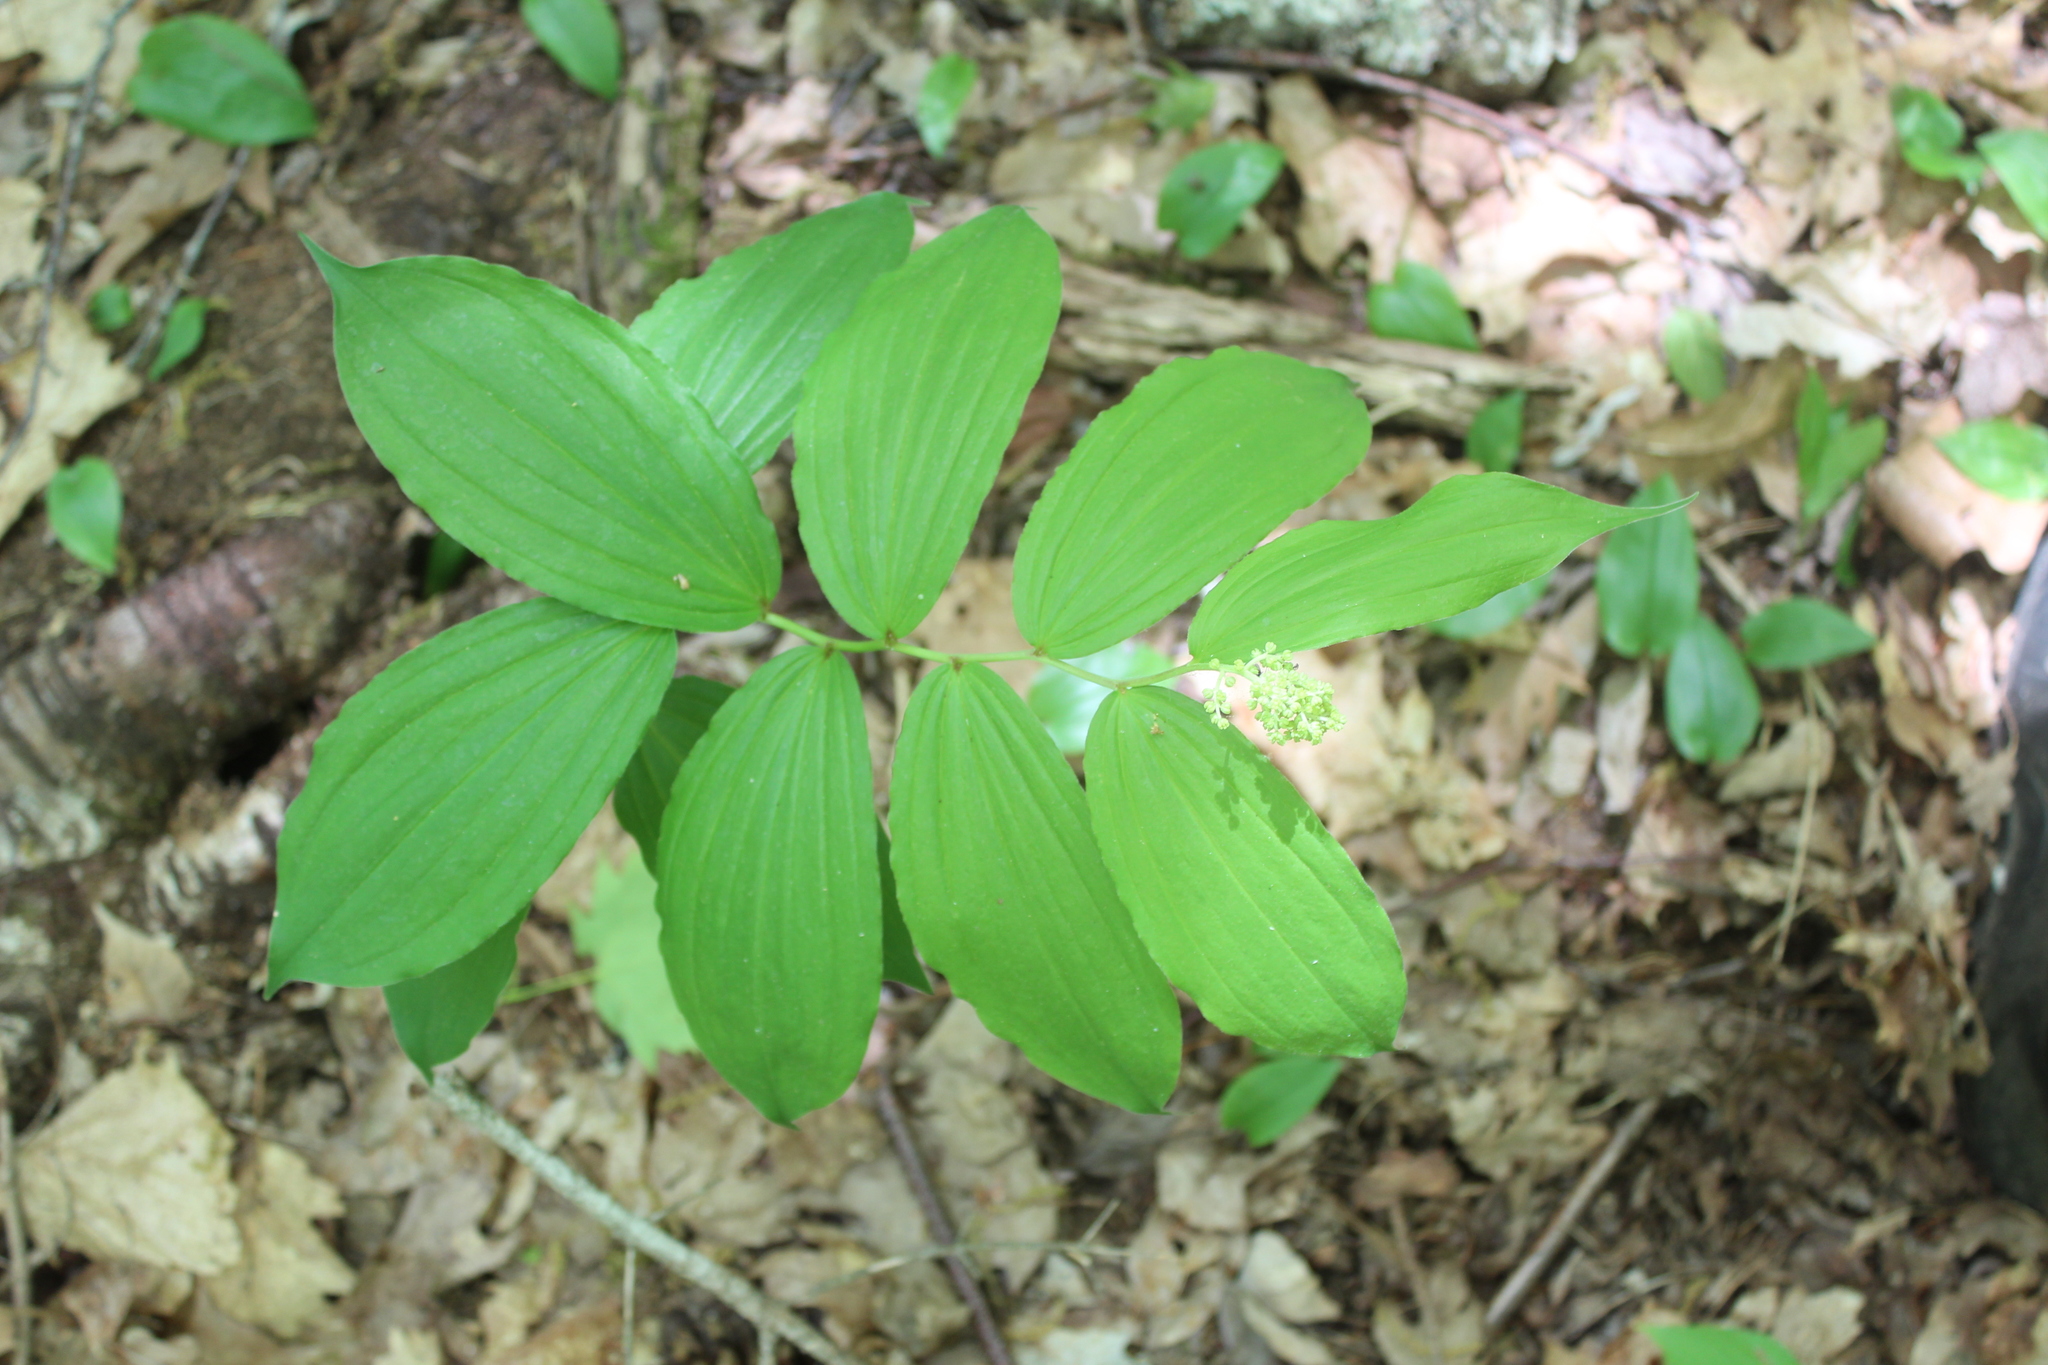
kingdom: Plantae
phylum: Tracheophyta
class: Liliopsida
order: Asparagales
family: Asparagaceae
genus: Maianthemum
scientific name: Maianthemum racemosum
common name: False spikenard
